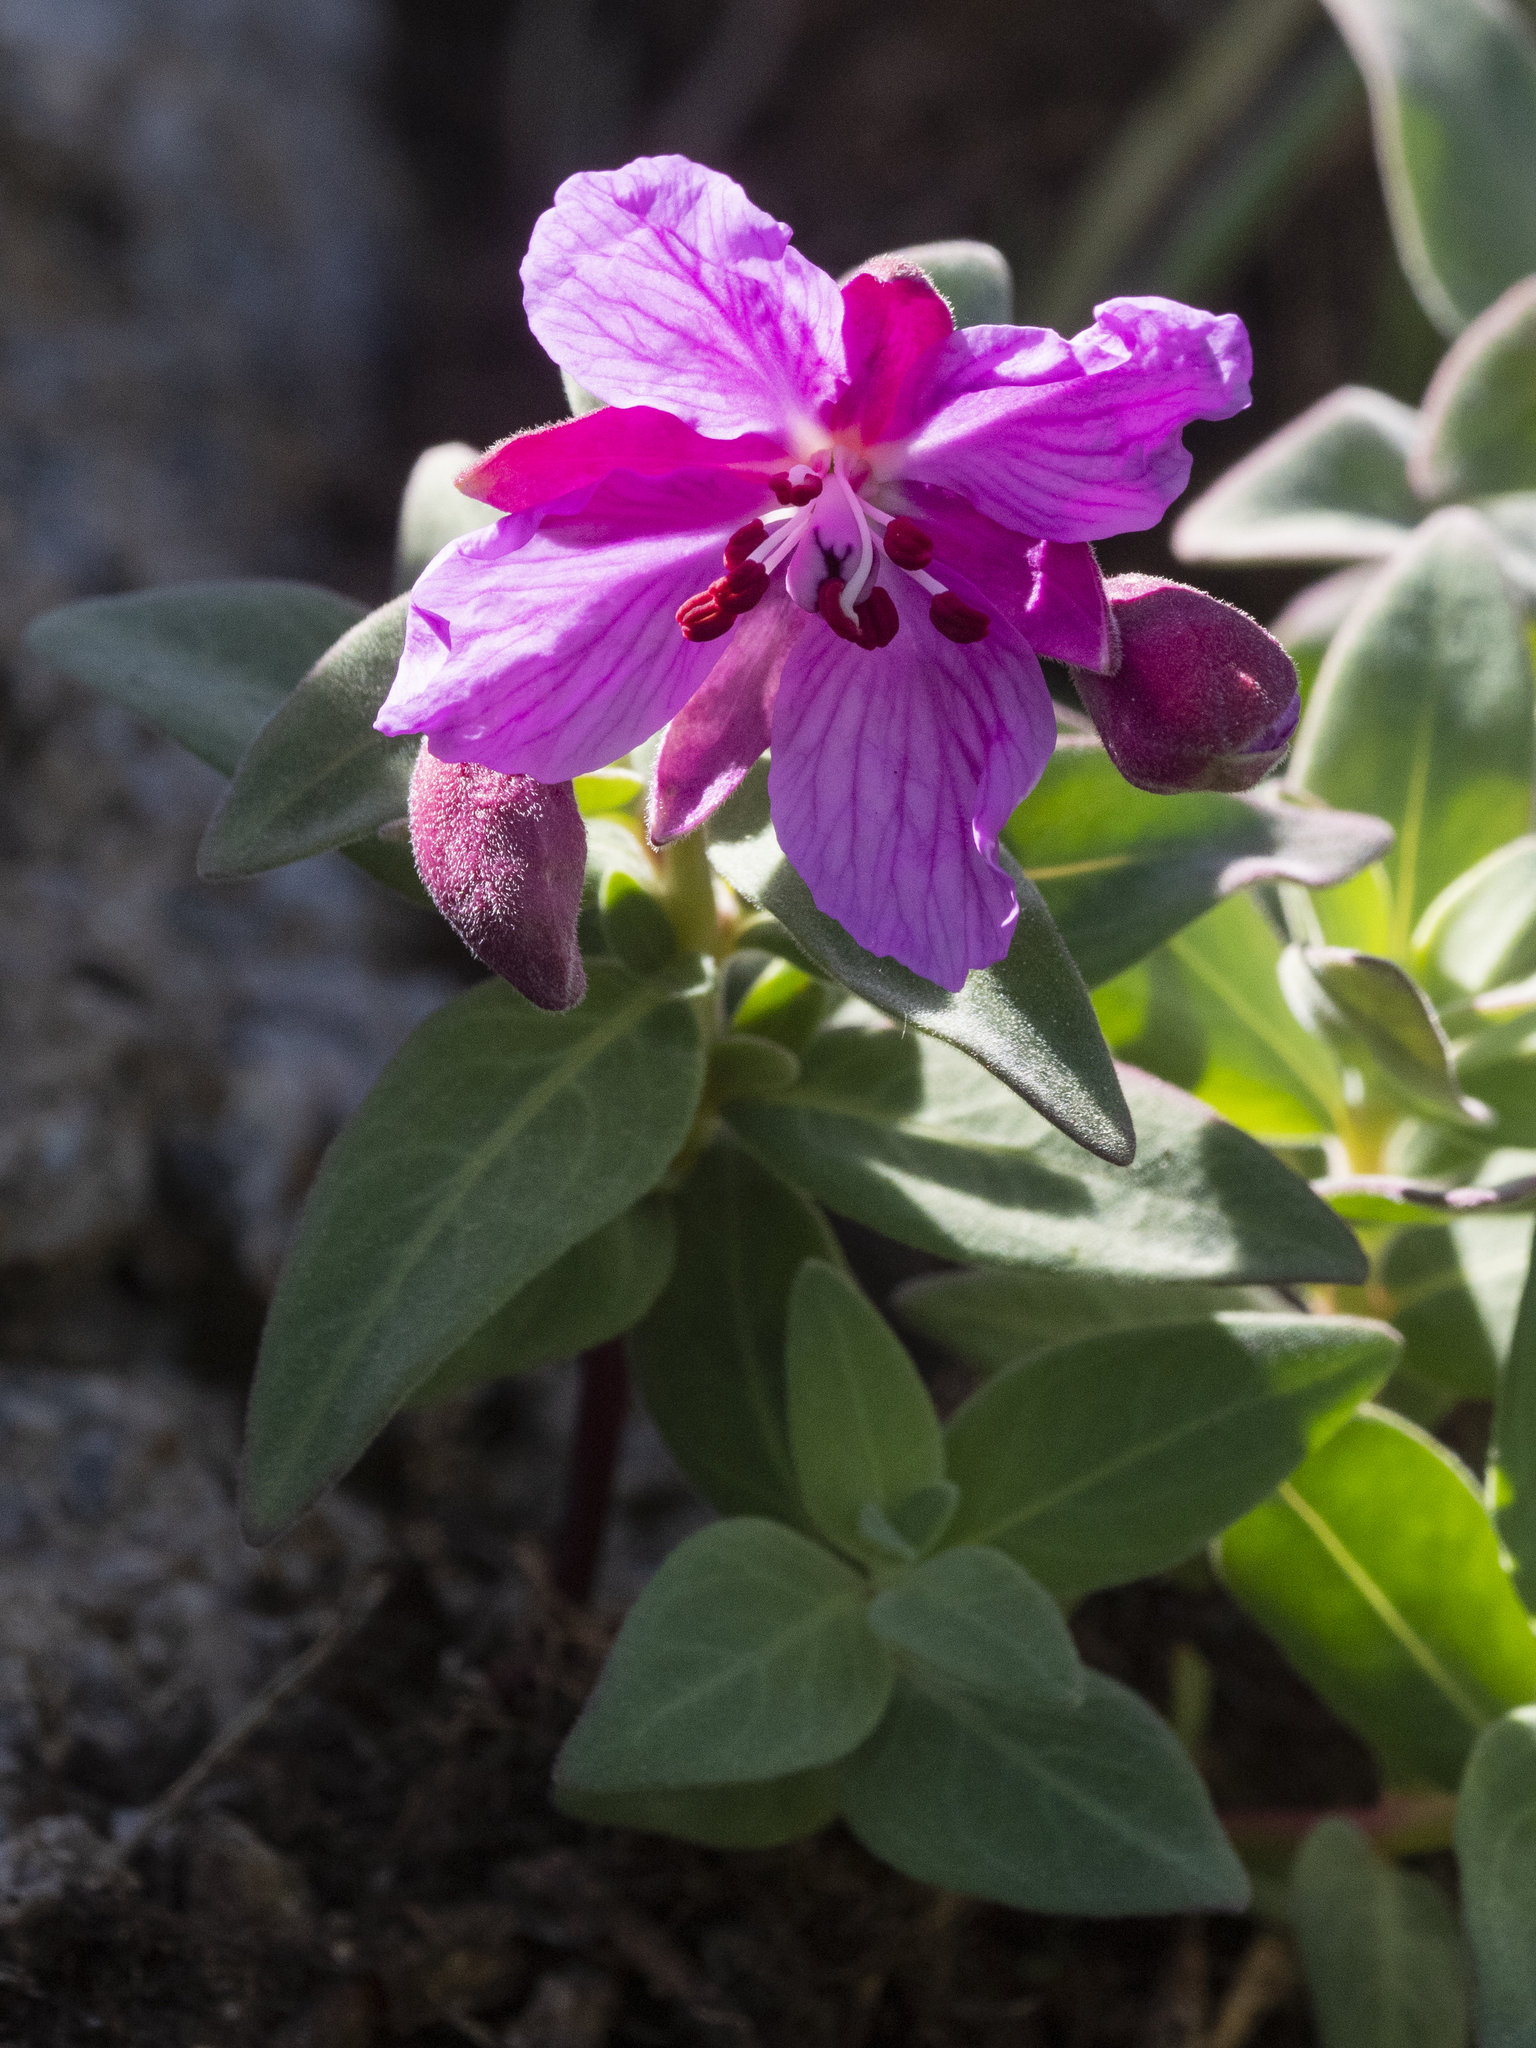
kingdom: Plantae
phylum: Tracheophyta
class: Magnoliopsida
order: Myrtales
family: Onagraceae
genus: Chamaenerion
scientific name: Chamaenerion latifolium
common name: Dwarf fireweed
